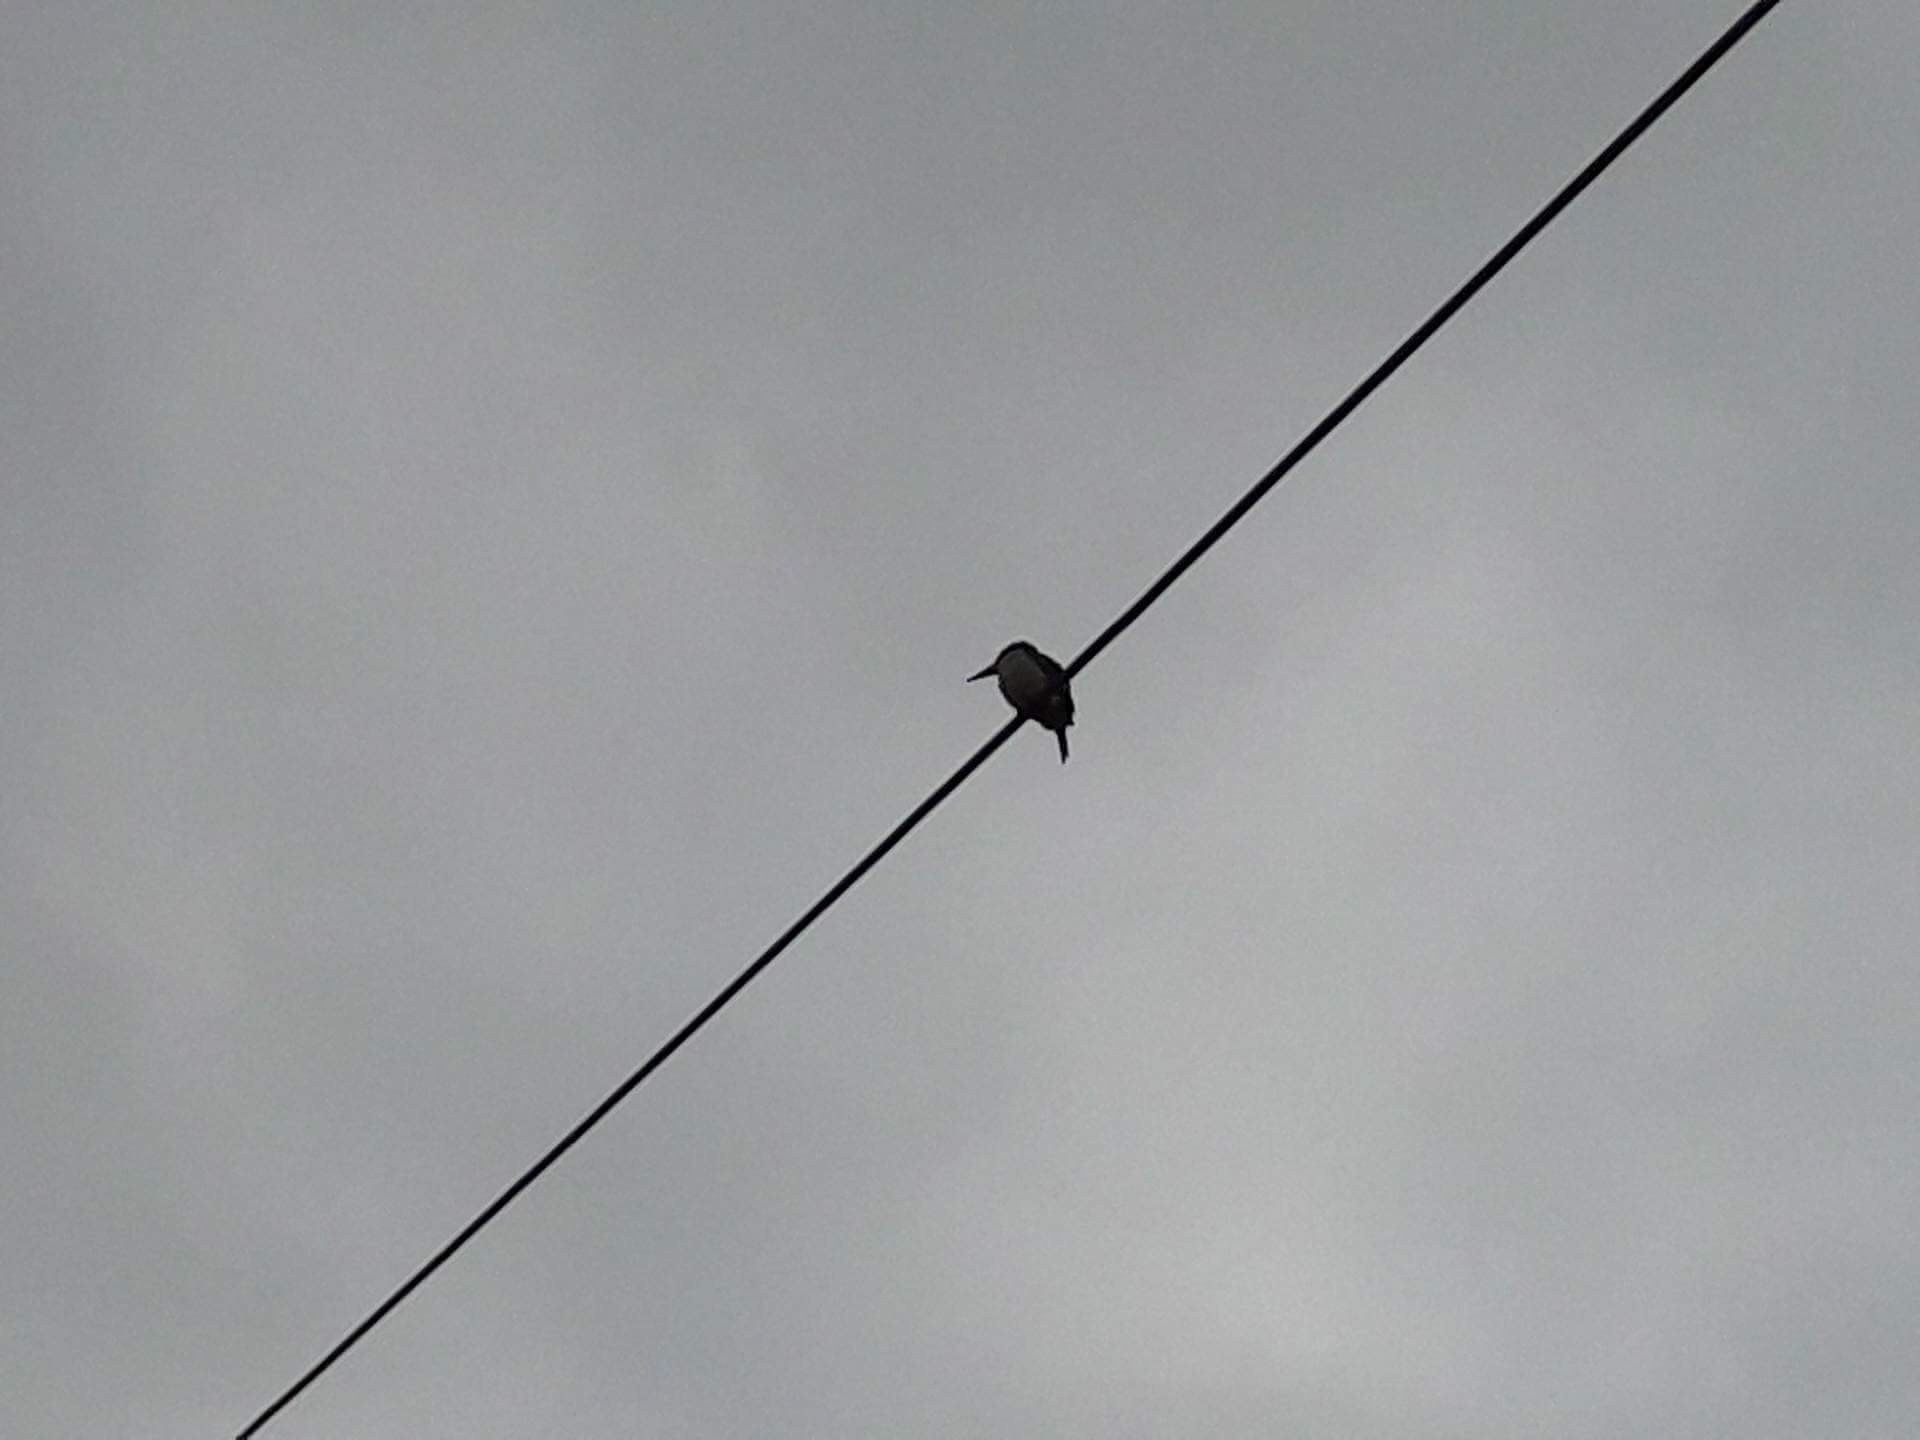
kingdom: Animalia
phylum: Chordata
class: Aves
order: Coraciiformes
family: Alcedinidae
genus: Todiramphus
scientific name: Todiramphus sanctus
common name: Sacred kingfisher
